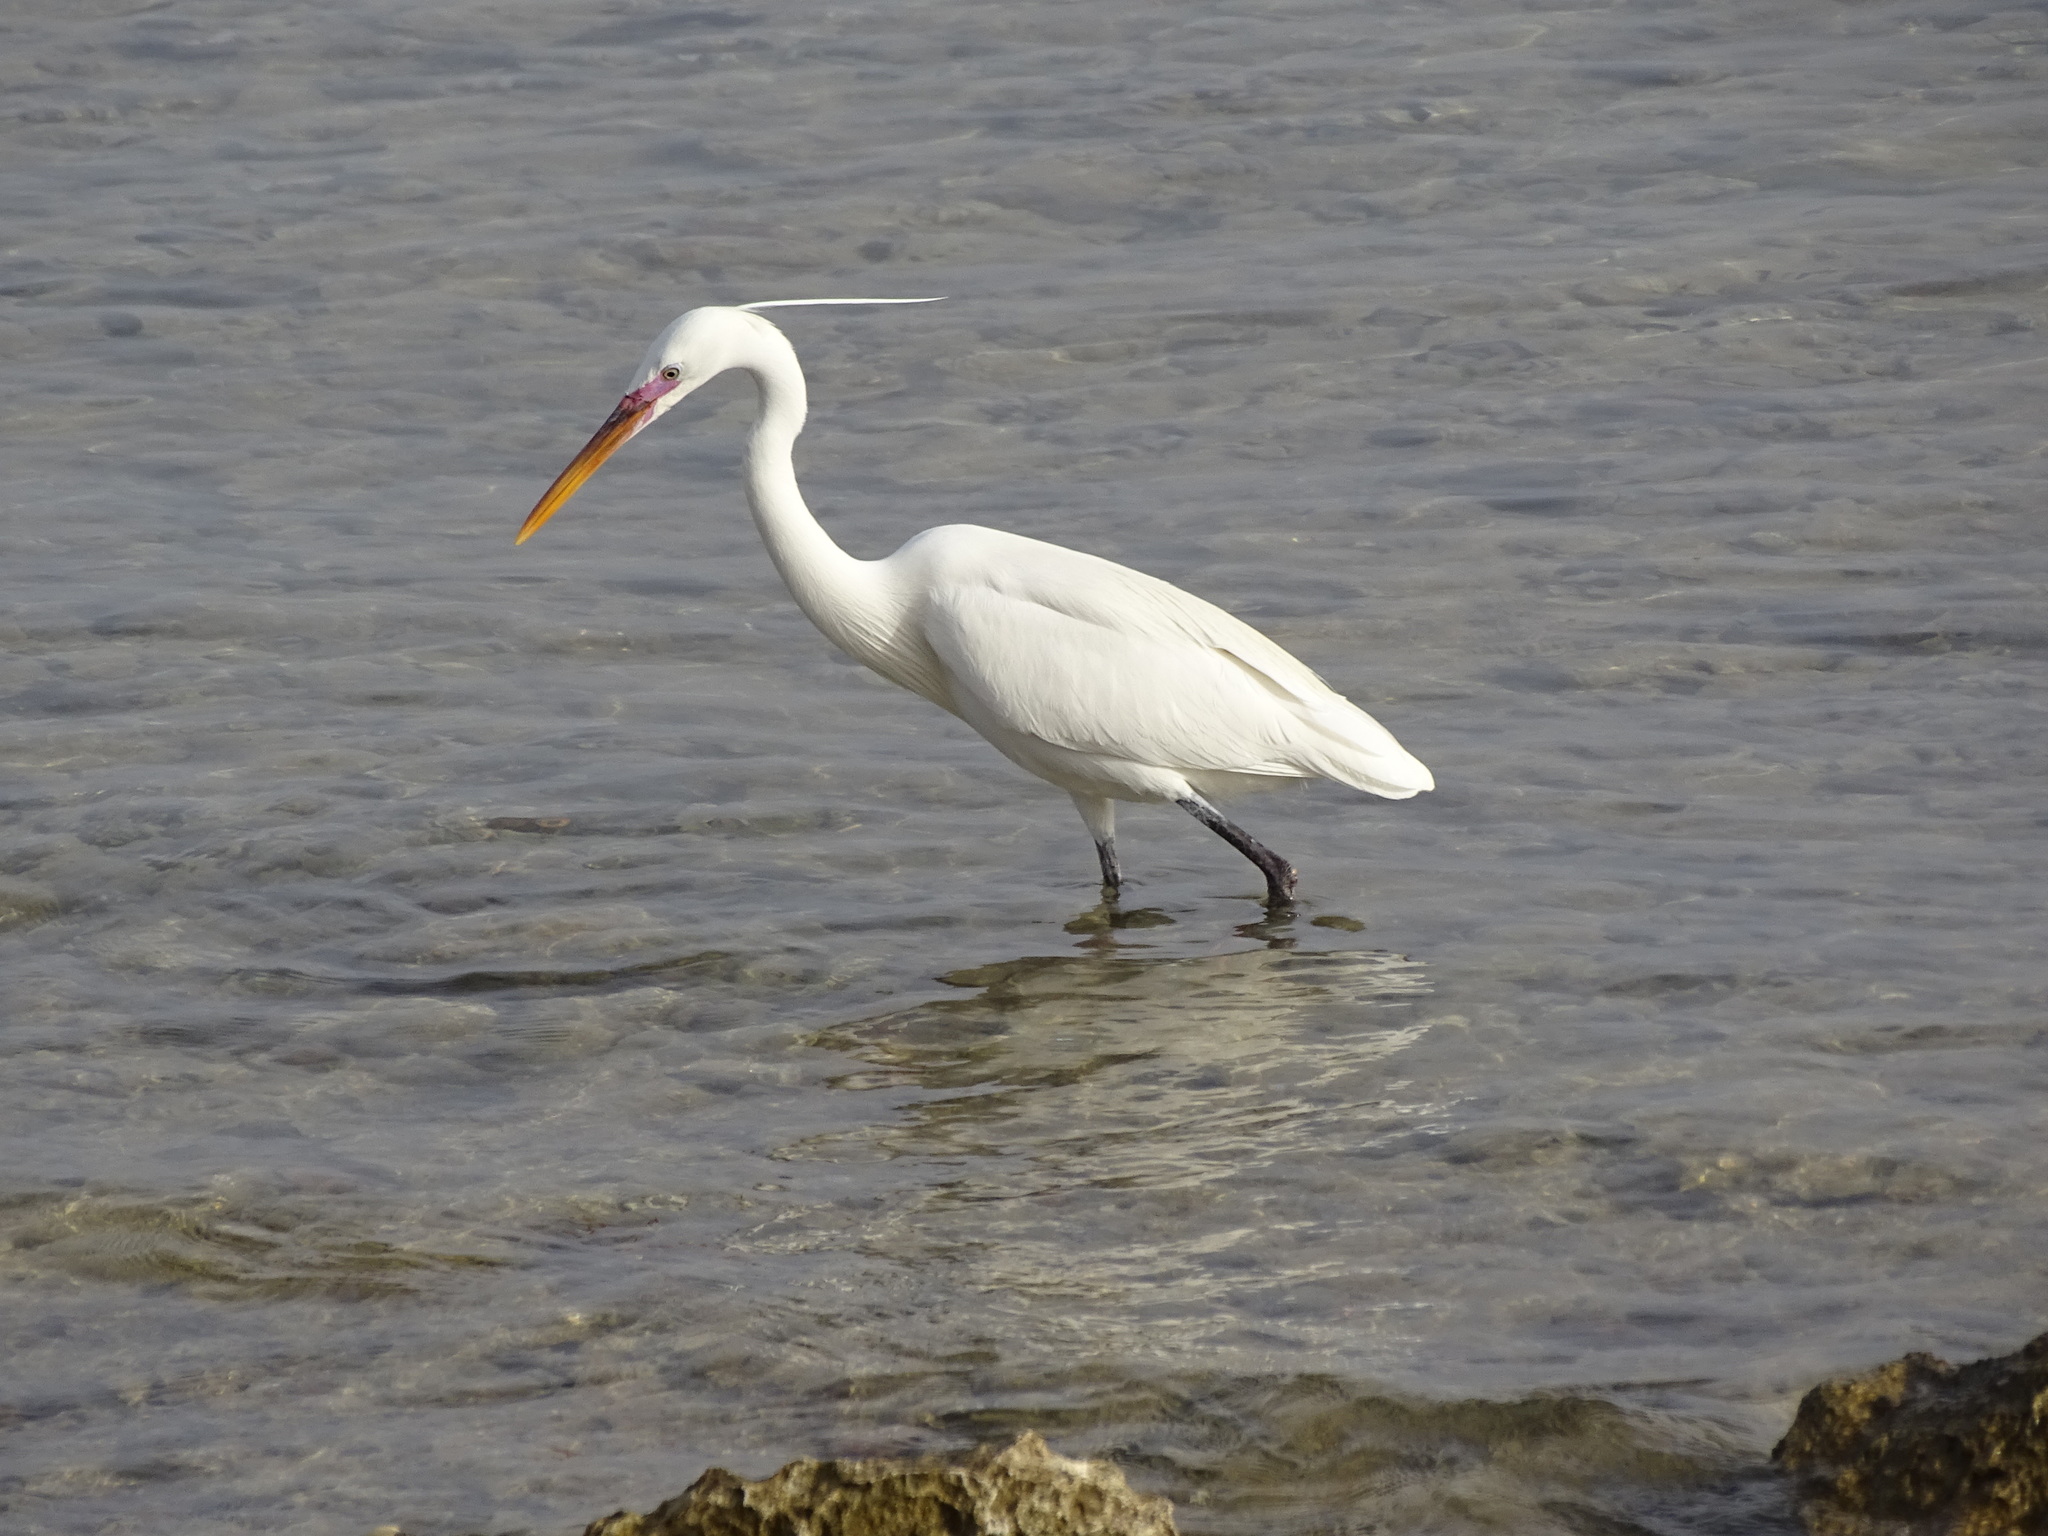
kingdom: Animalia
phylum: Chordata
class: Aves
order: Pelecaniformes
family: Ardeidae
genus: Egretta
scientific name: Egretta gularis
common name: Western reef-heron
